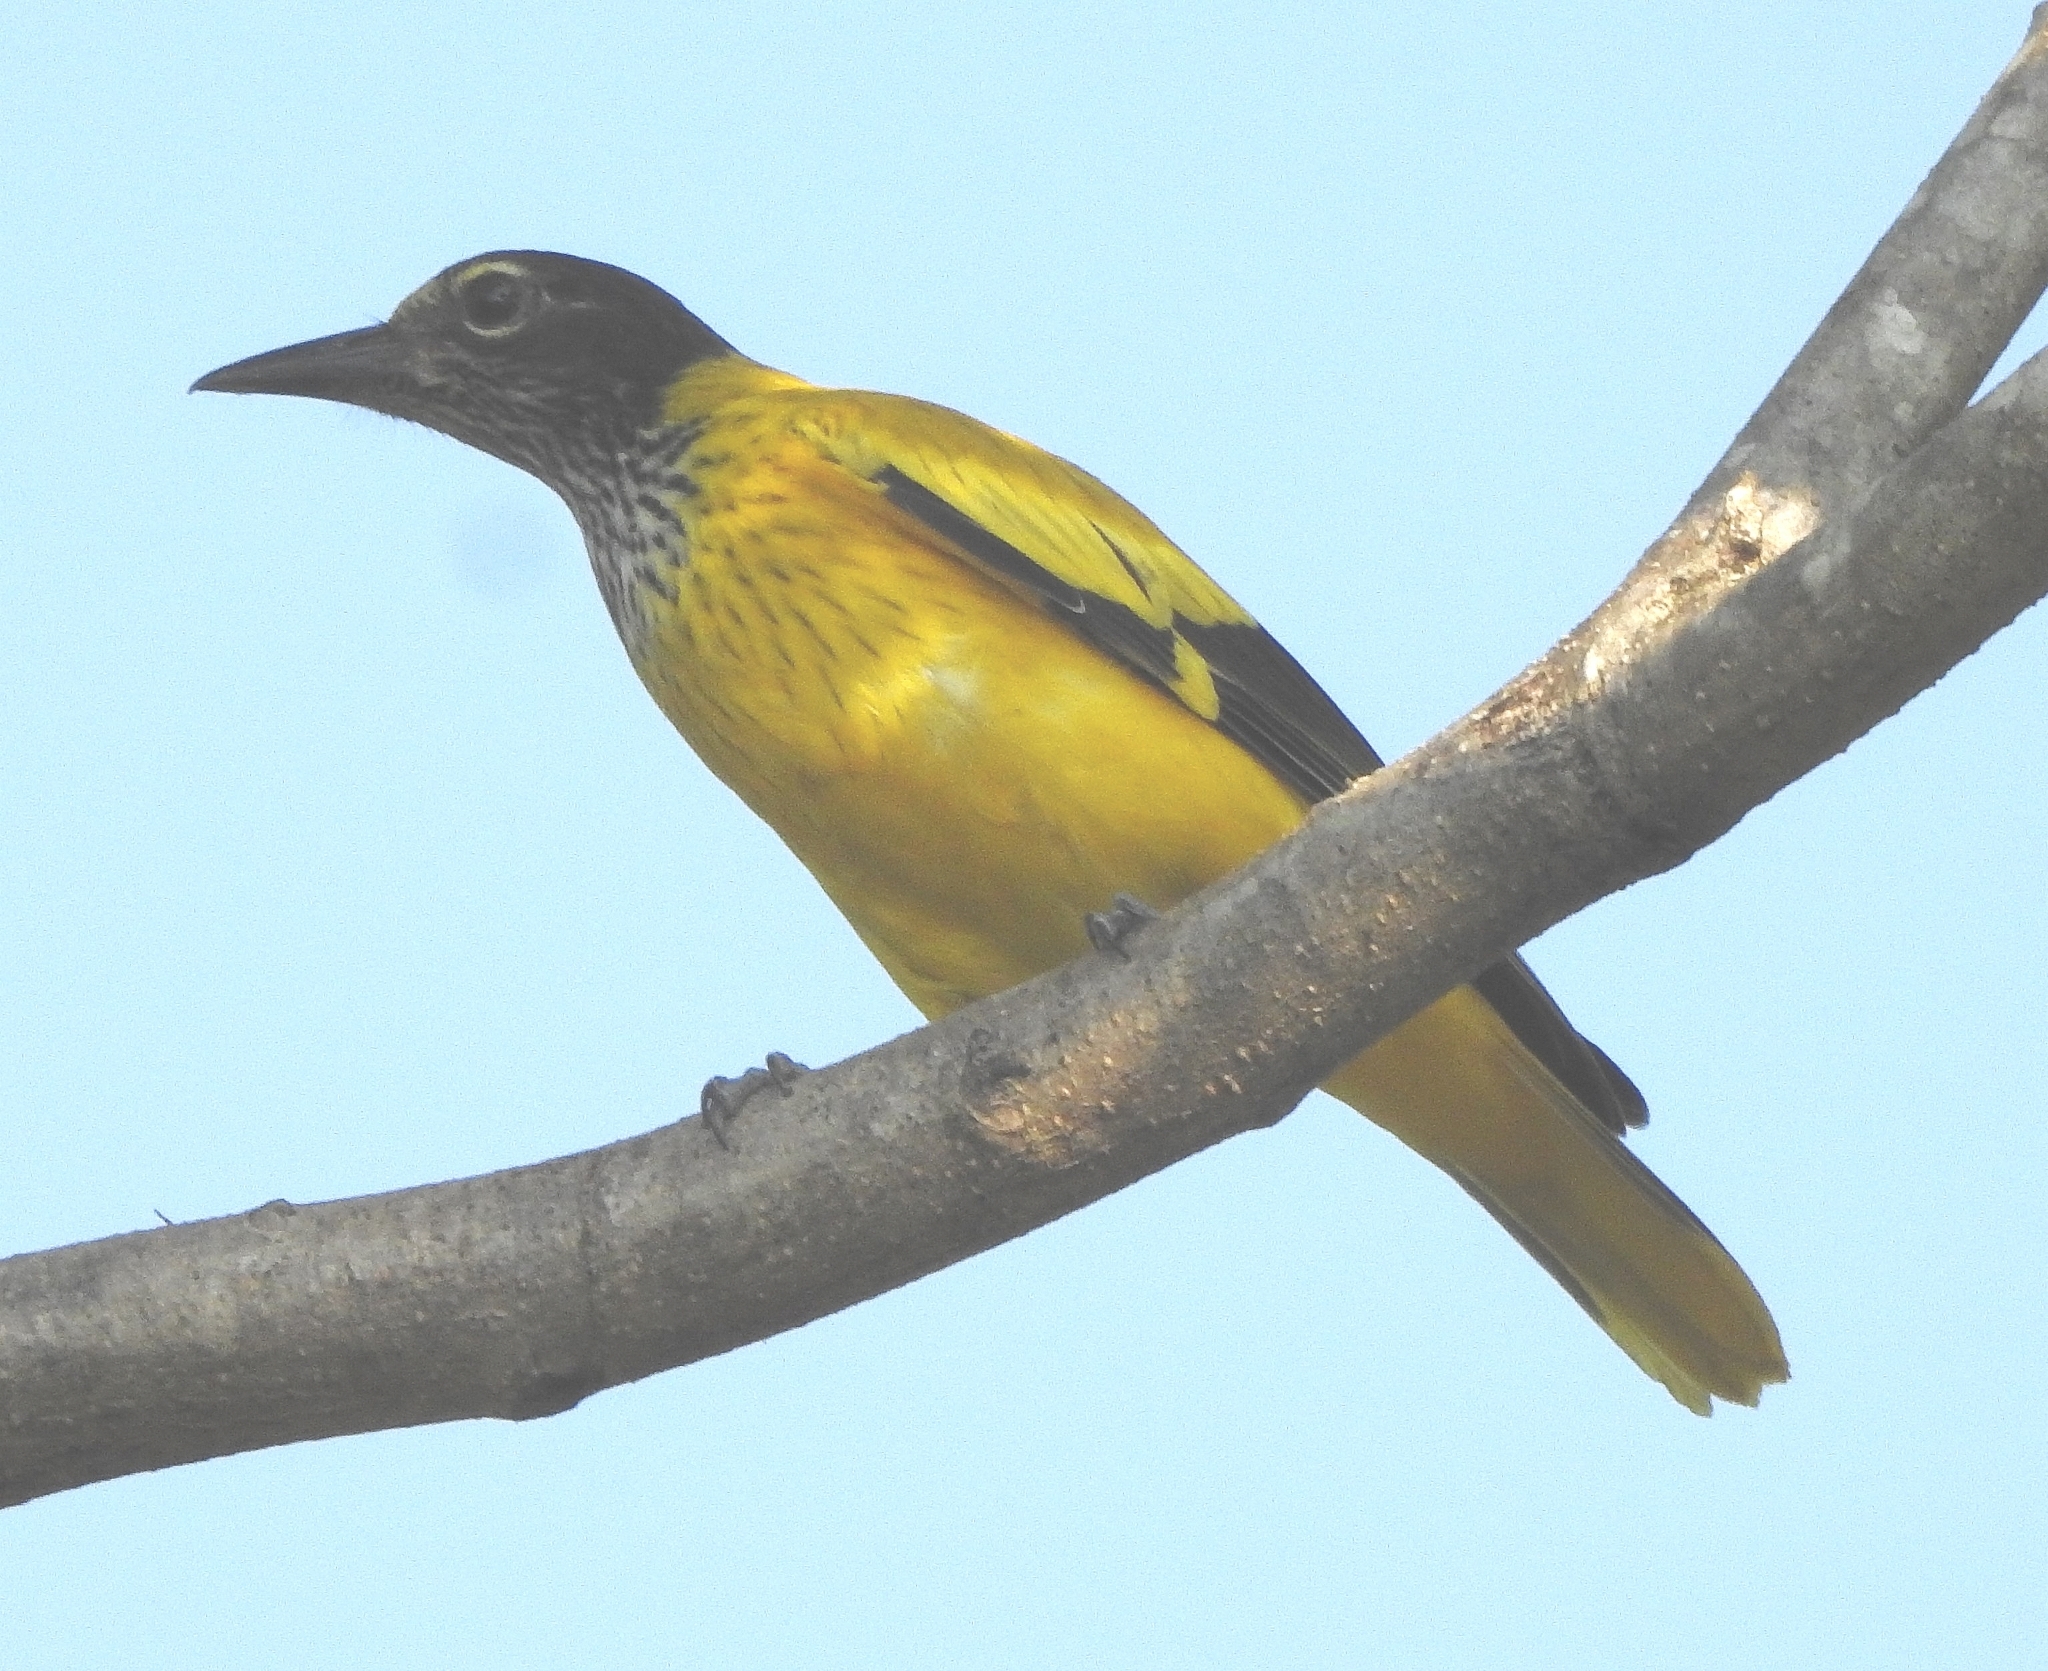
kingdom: Animalia
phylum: Chordata
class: Aves
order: Passeriformes
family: Oriolidae
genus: Oriolus
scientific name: Oriolus xanthornus
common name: Black-hooded oriole
